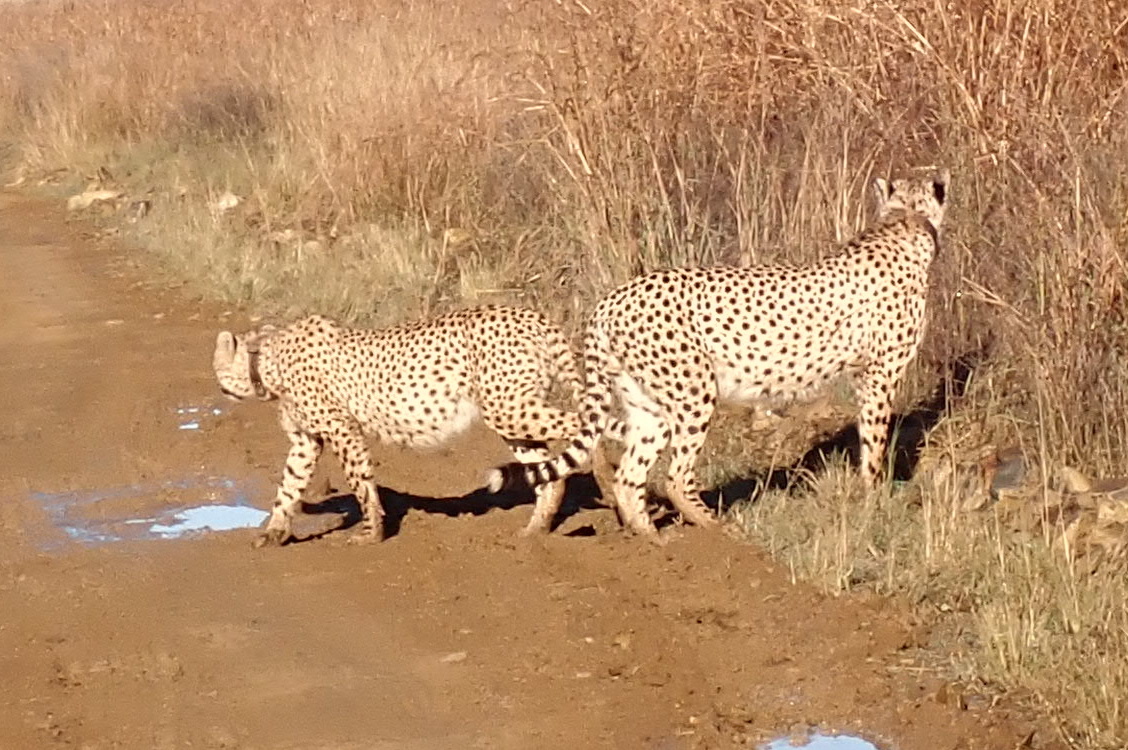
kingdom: Animalia
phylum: Chordata
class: Mammalia
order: Carnivora
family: Felidae
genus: Acinonyx
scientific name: Acinonyx jubatus
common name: Cheetah
